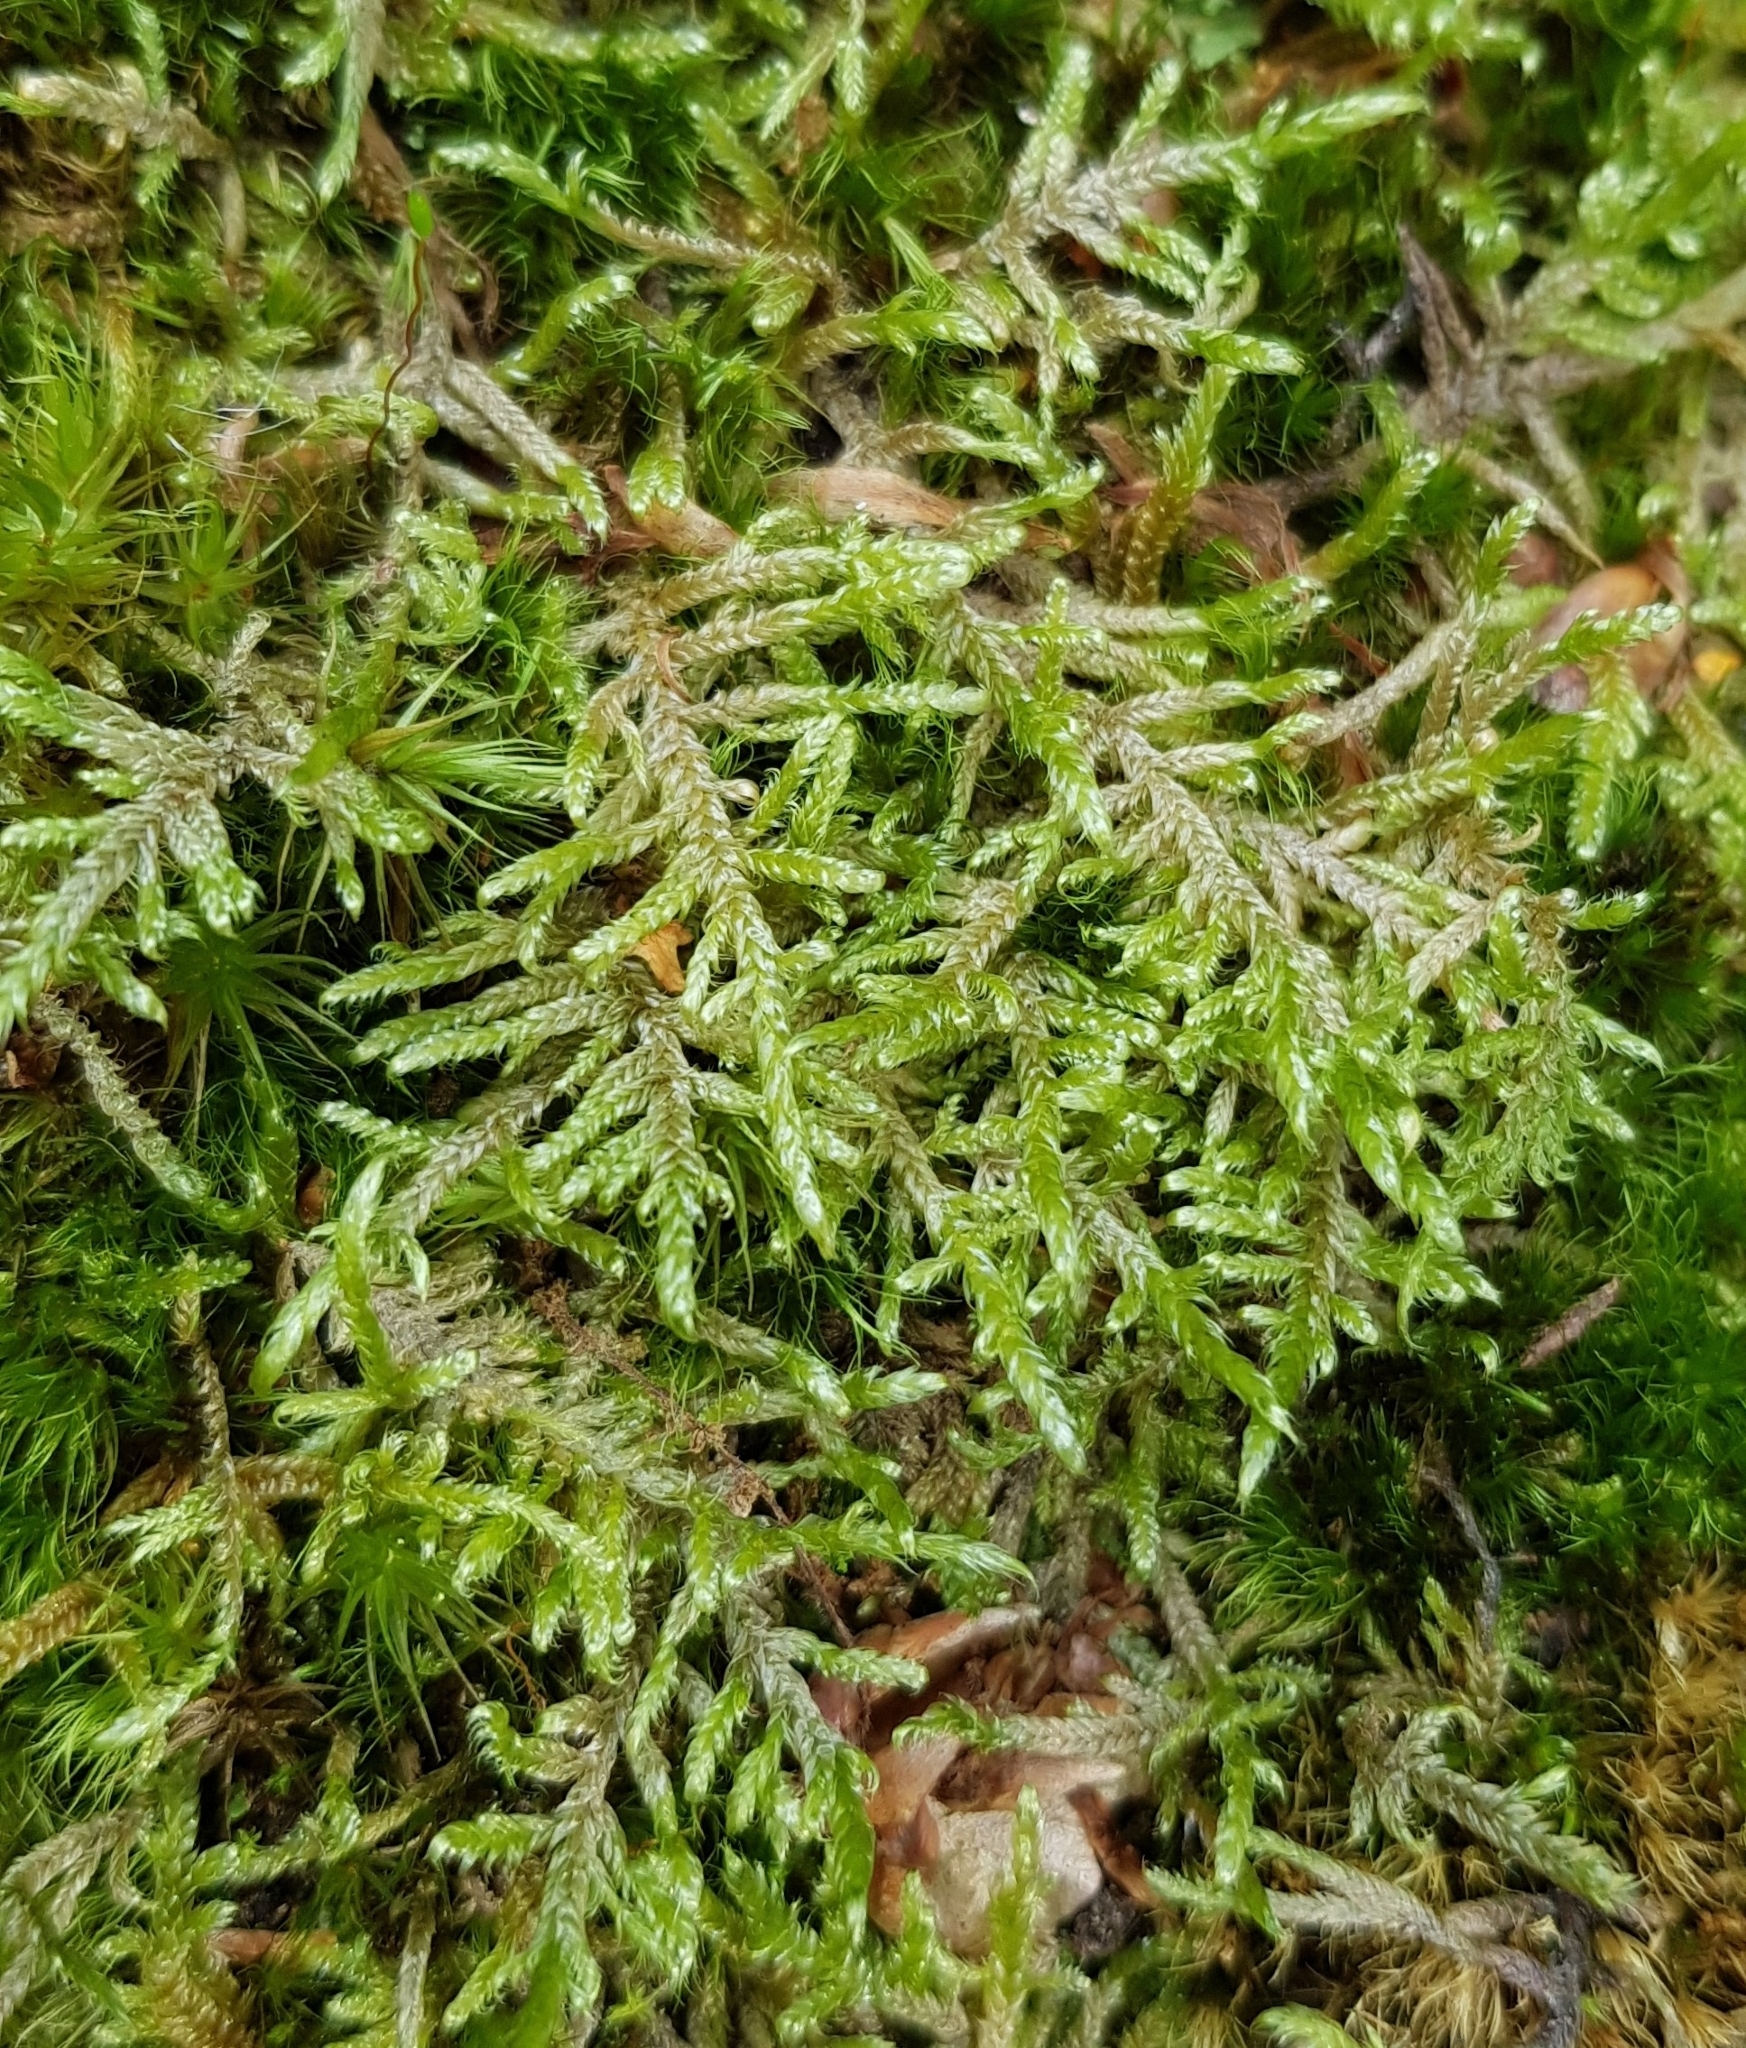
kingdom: Plantae
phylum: Bryophyta
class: Bryopsida
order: Hypnales
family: Hypnaceae
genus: Hypnum
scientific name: Hypnum jutlandicum
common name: Heath plait-moss
